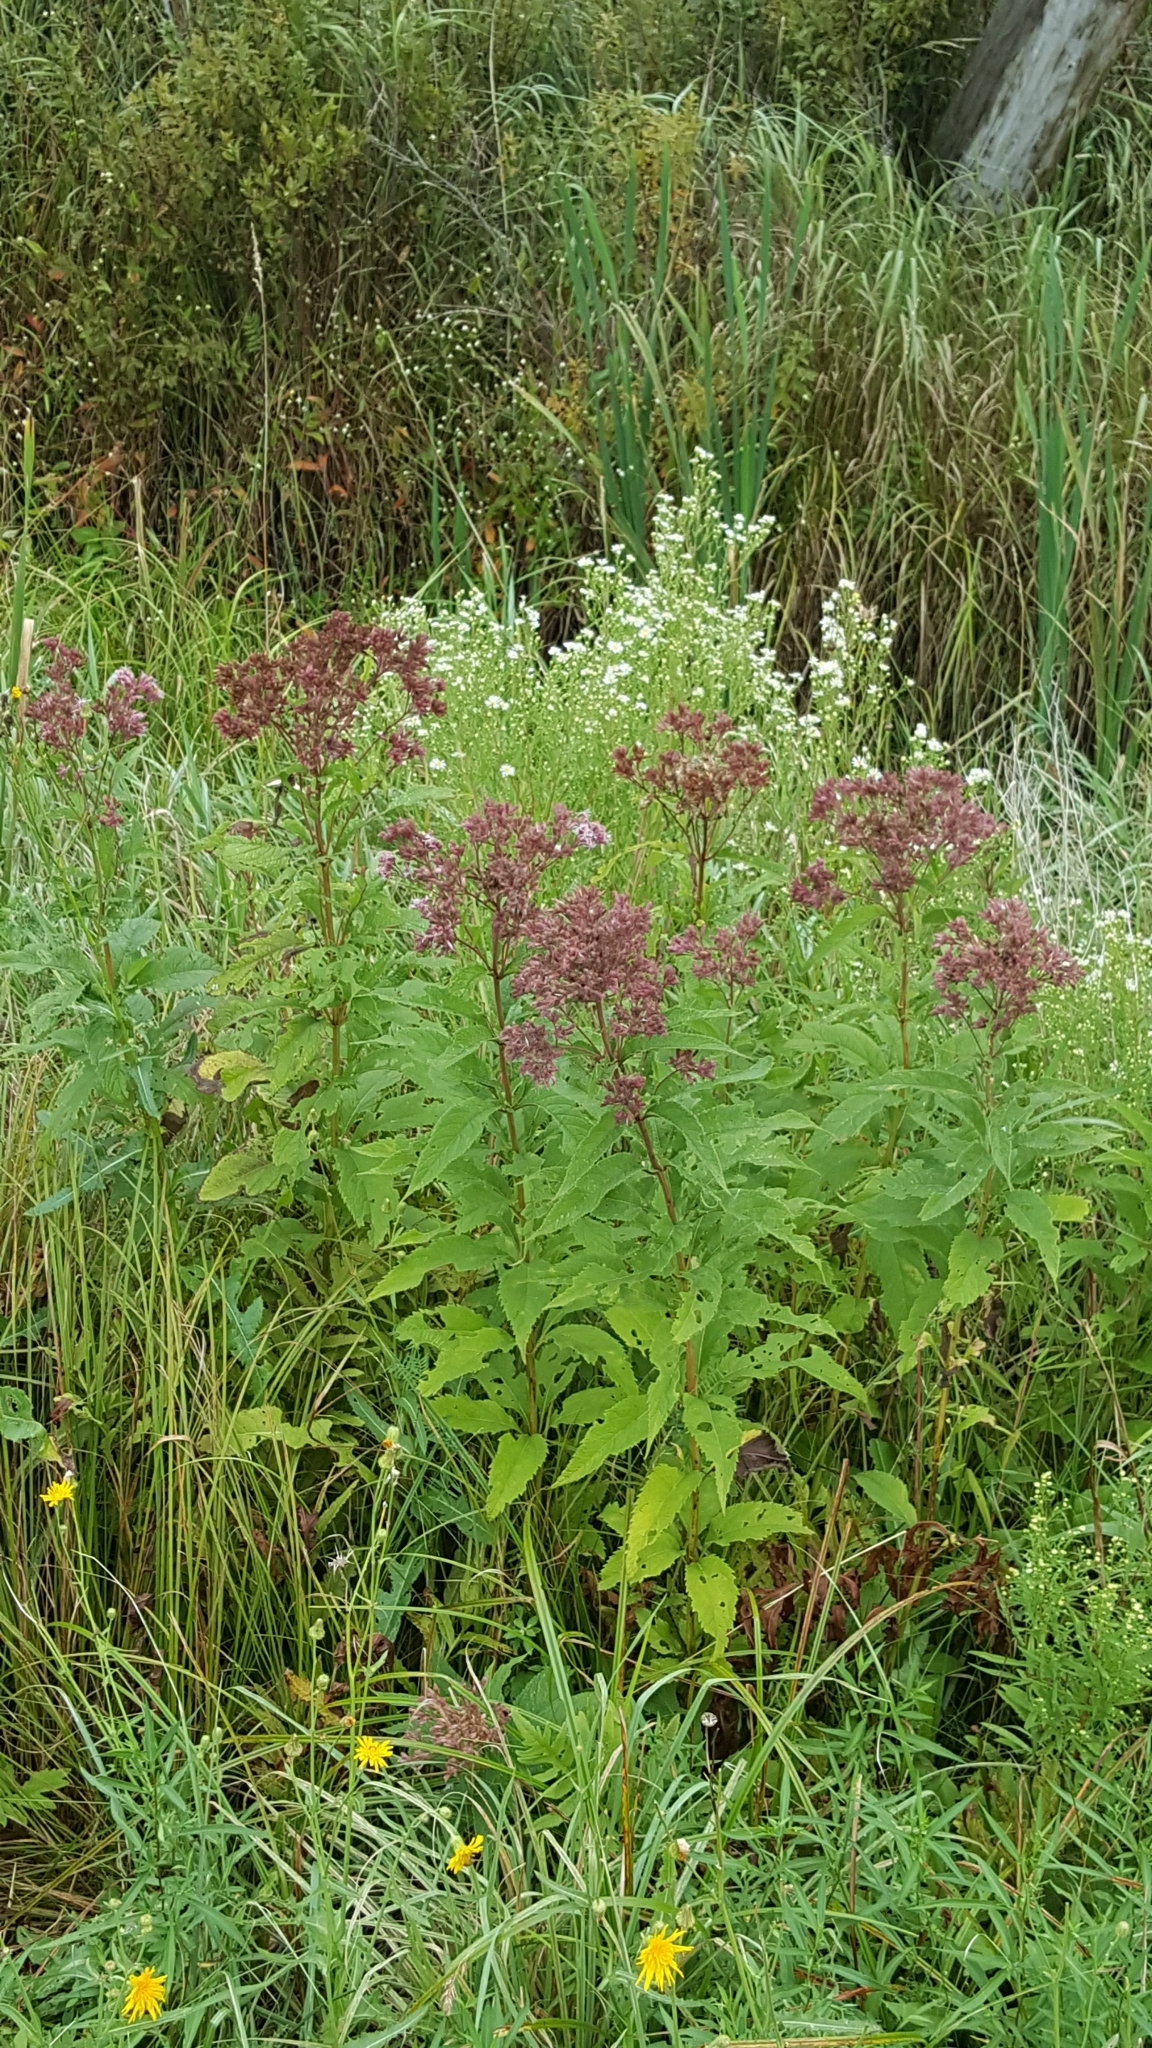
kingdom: Plantae
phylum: Tracheophyta
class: Magnoliopsida
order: Asterales
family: Asteraceae
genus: Eutrochium
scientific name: Eutrochium maculatum
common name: Spotted joe pye weed
